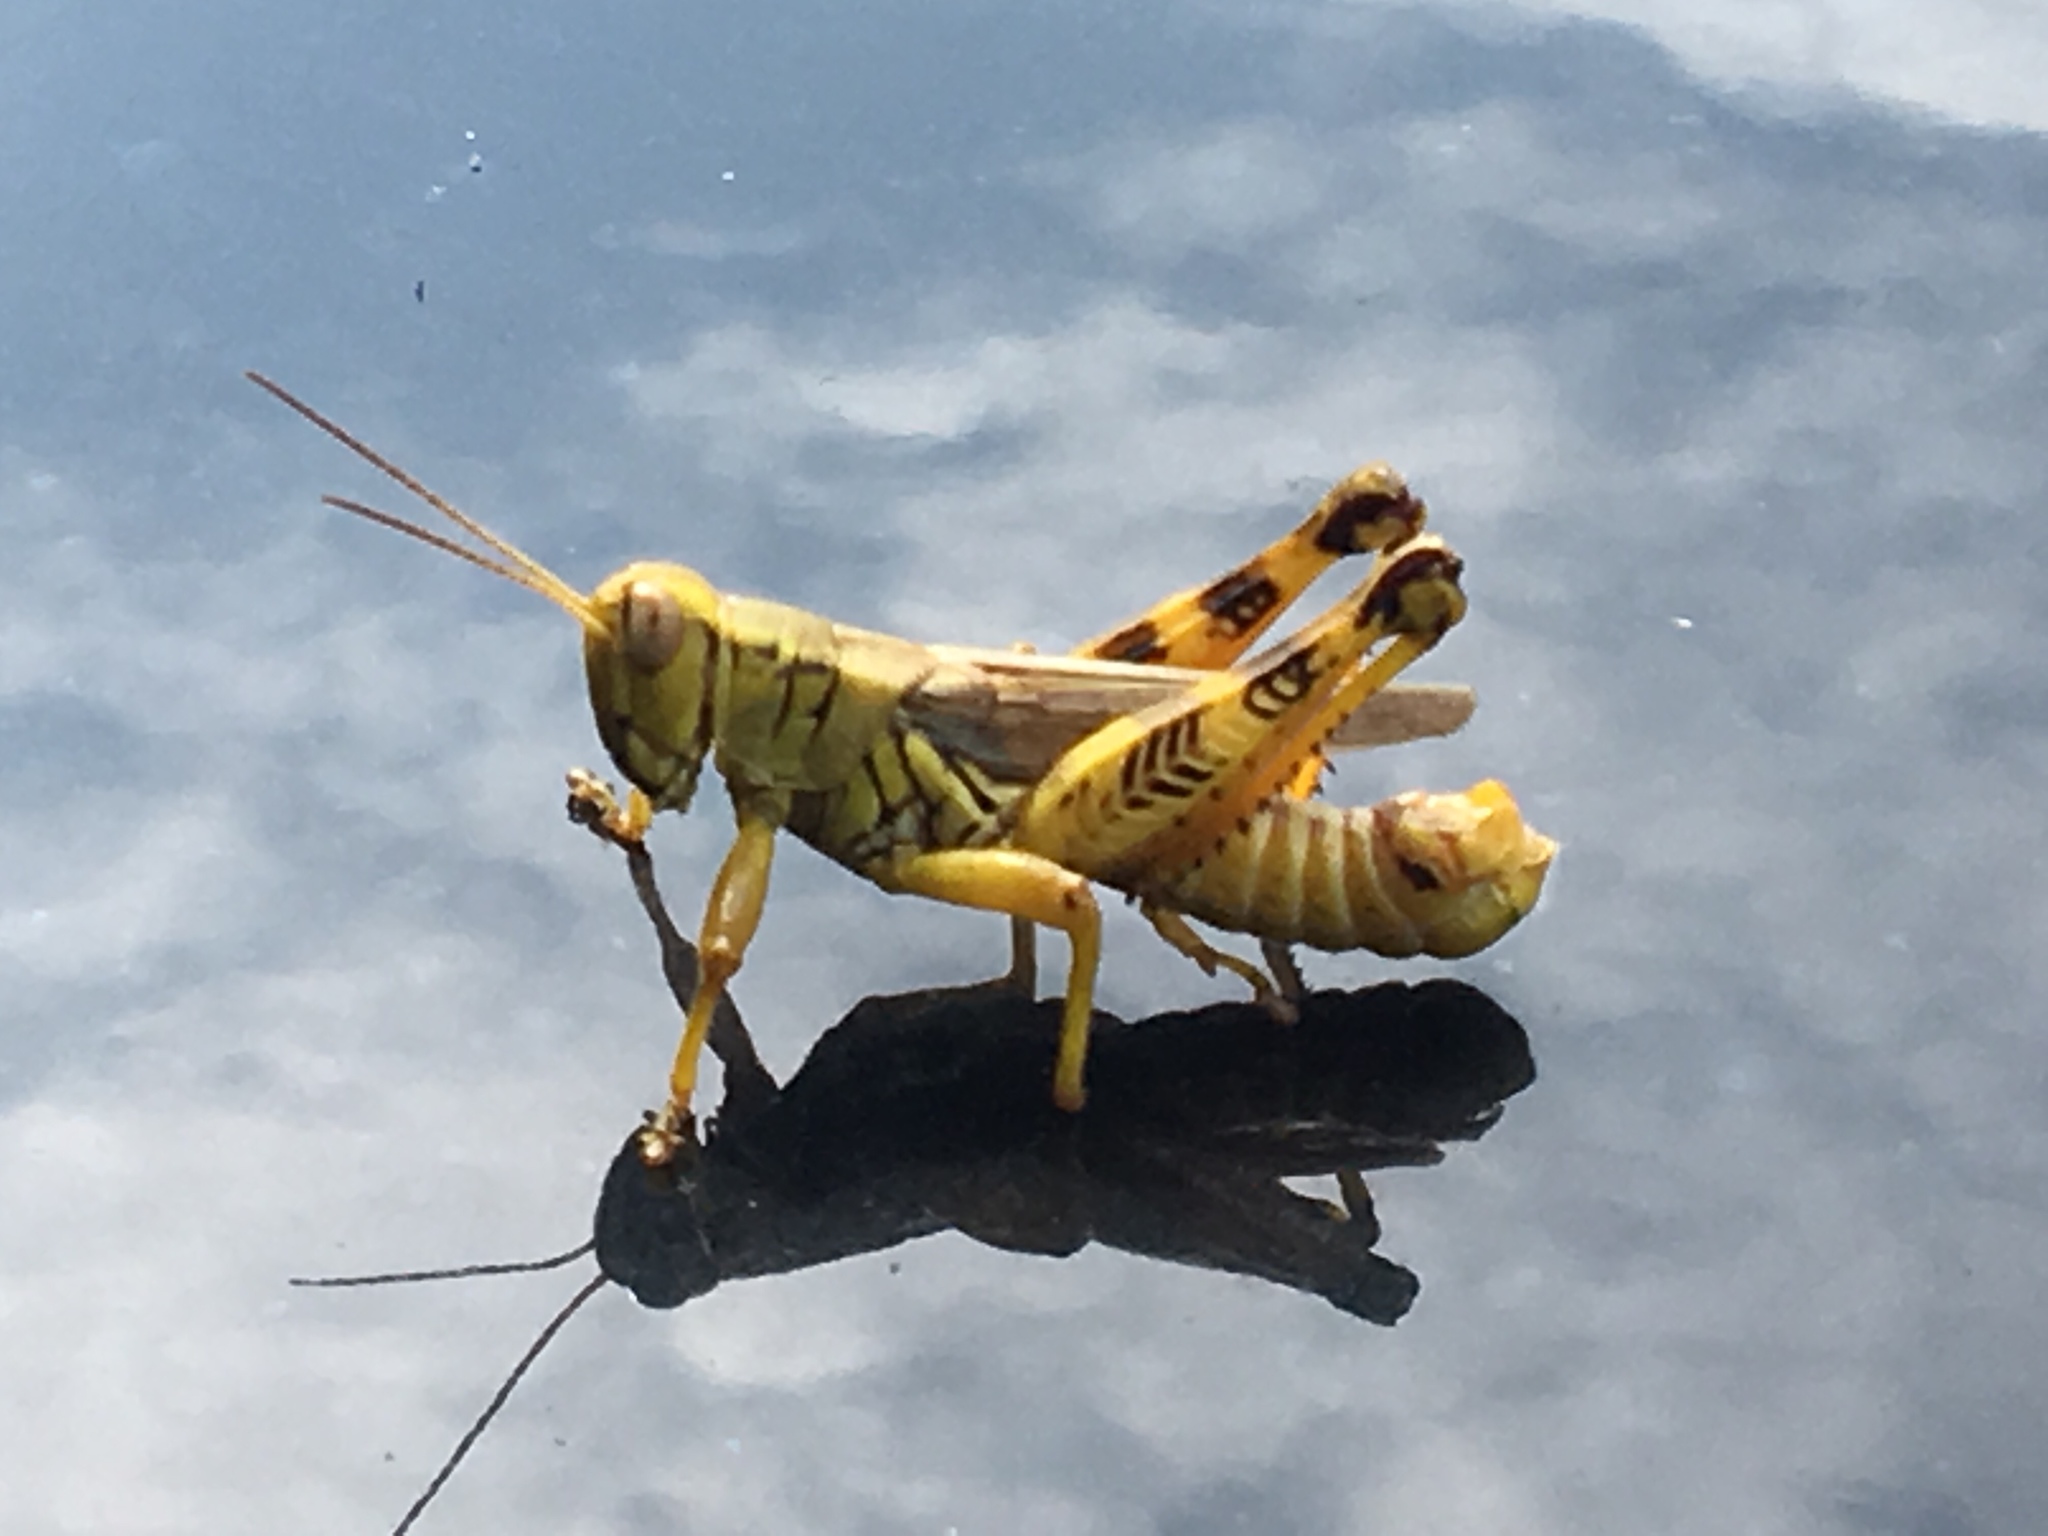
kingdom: Animalia
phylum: Arthropoda
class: Insecta
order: Orthoptera
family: Acrididae
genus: Melanoplus
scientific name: Melanoplus ponderosus
